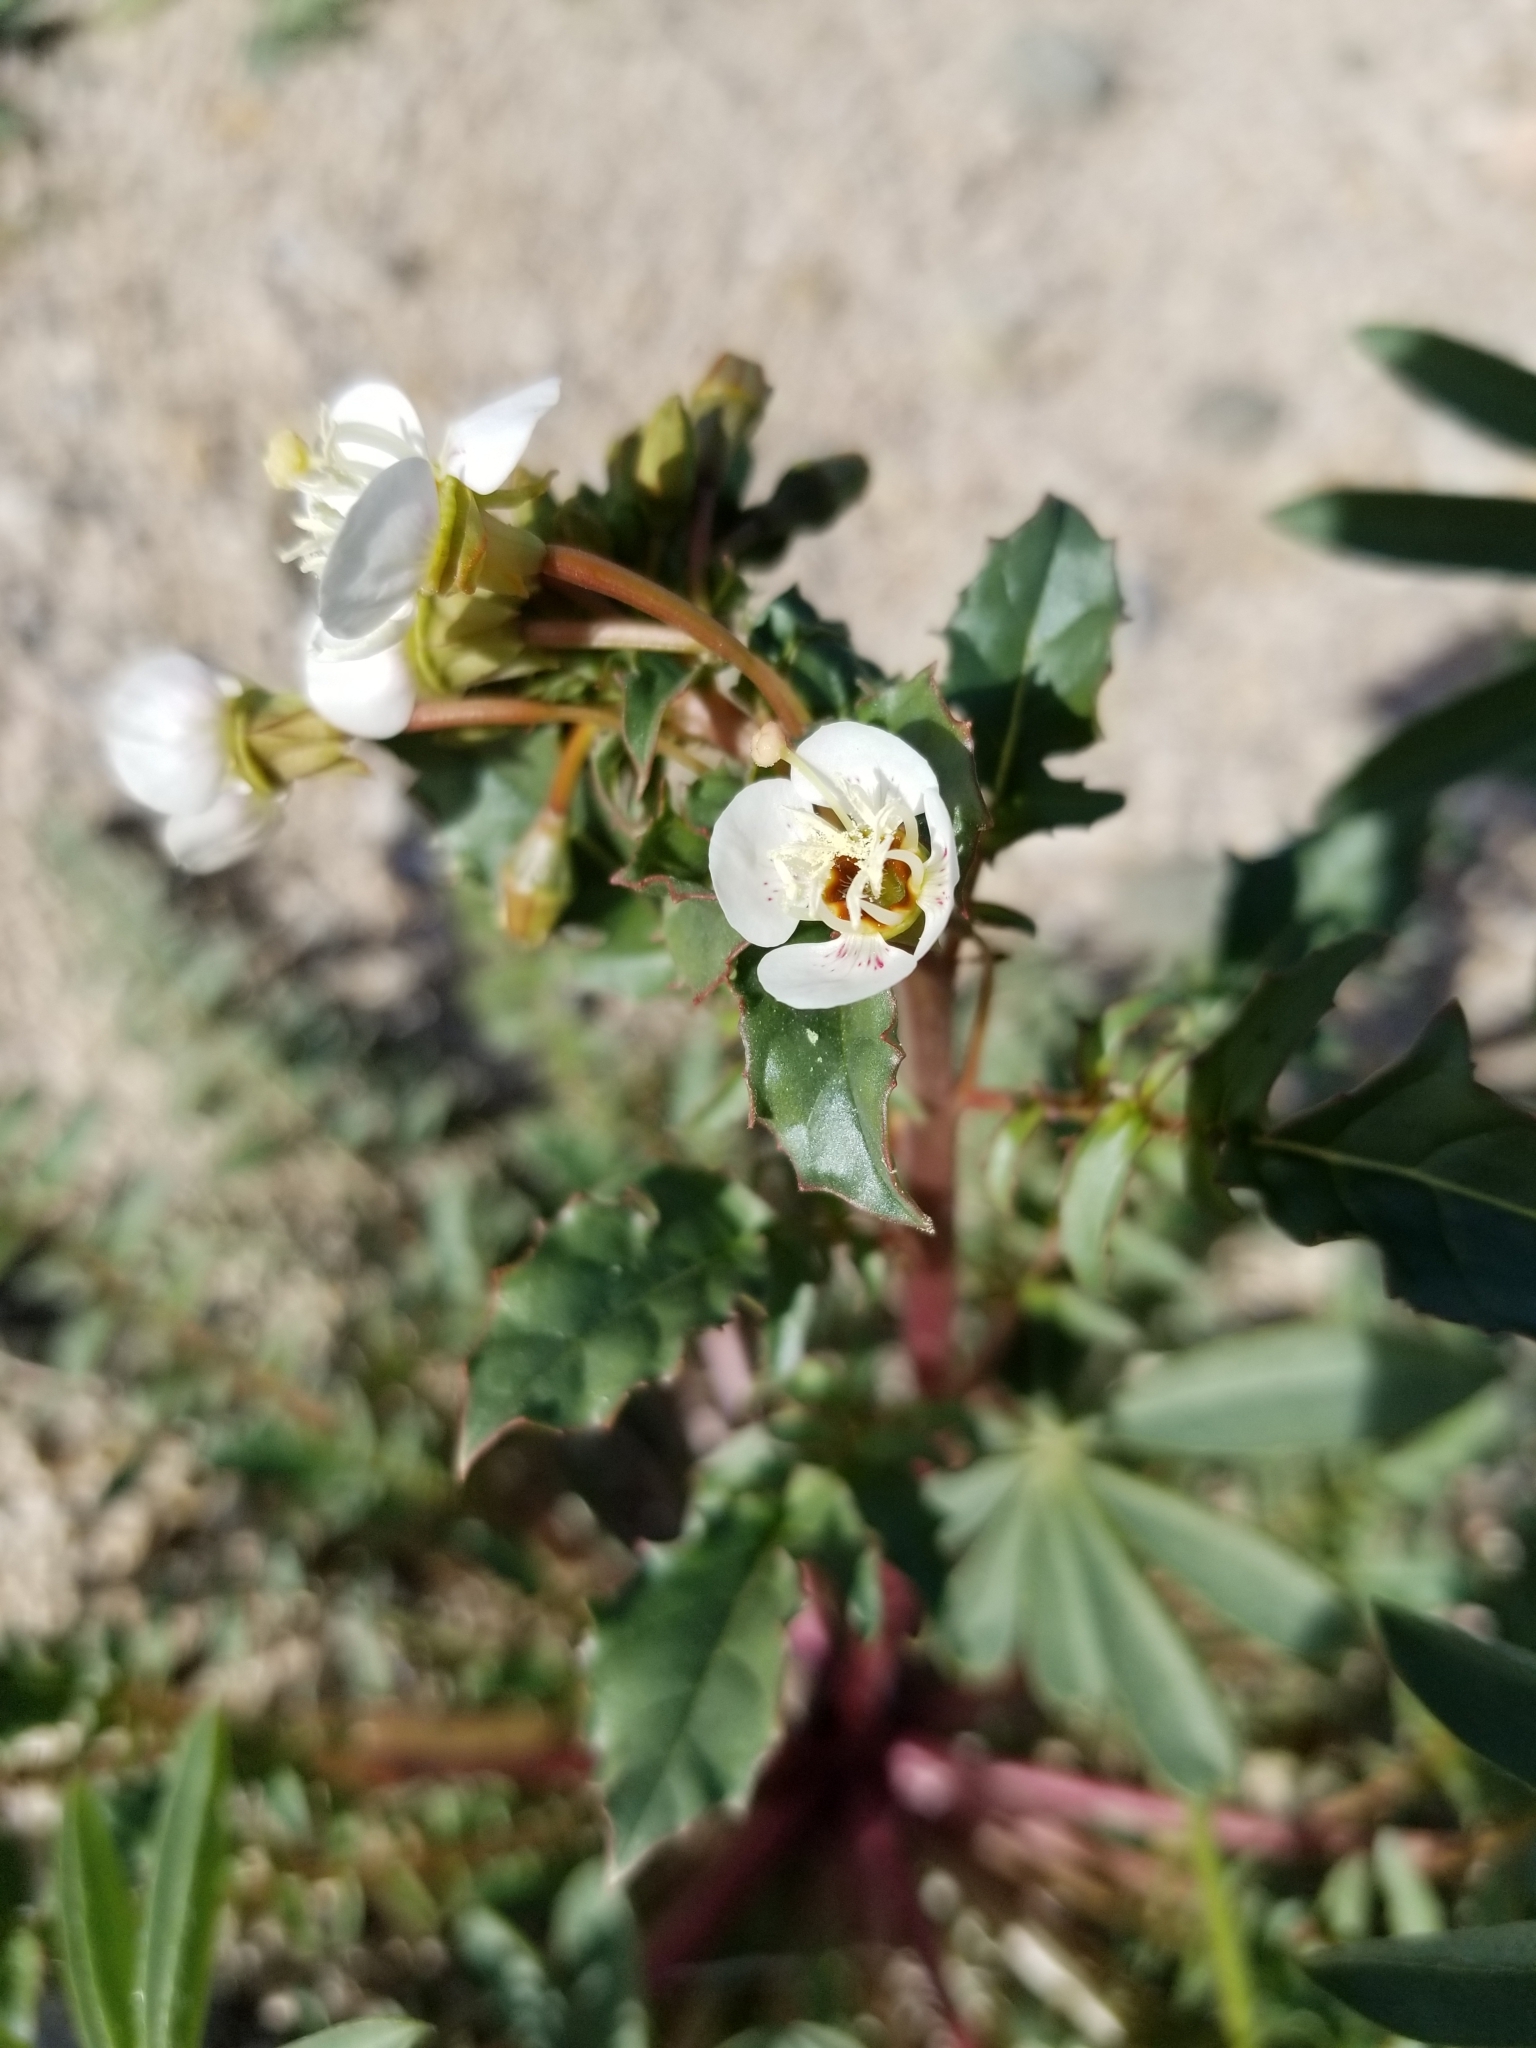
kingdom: Plantae
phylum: Tracheophyta
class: Magnoliopsida
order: Myrtales
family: Onagraceae
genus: Chylismia
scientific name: Chylismia claviformis
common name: Browneyes
